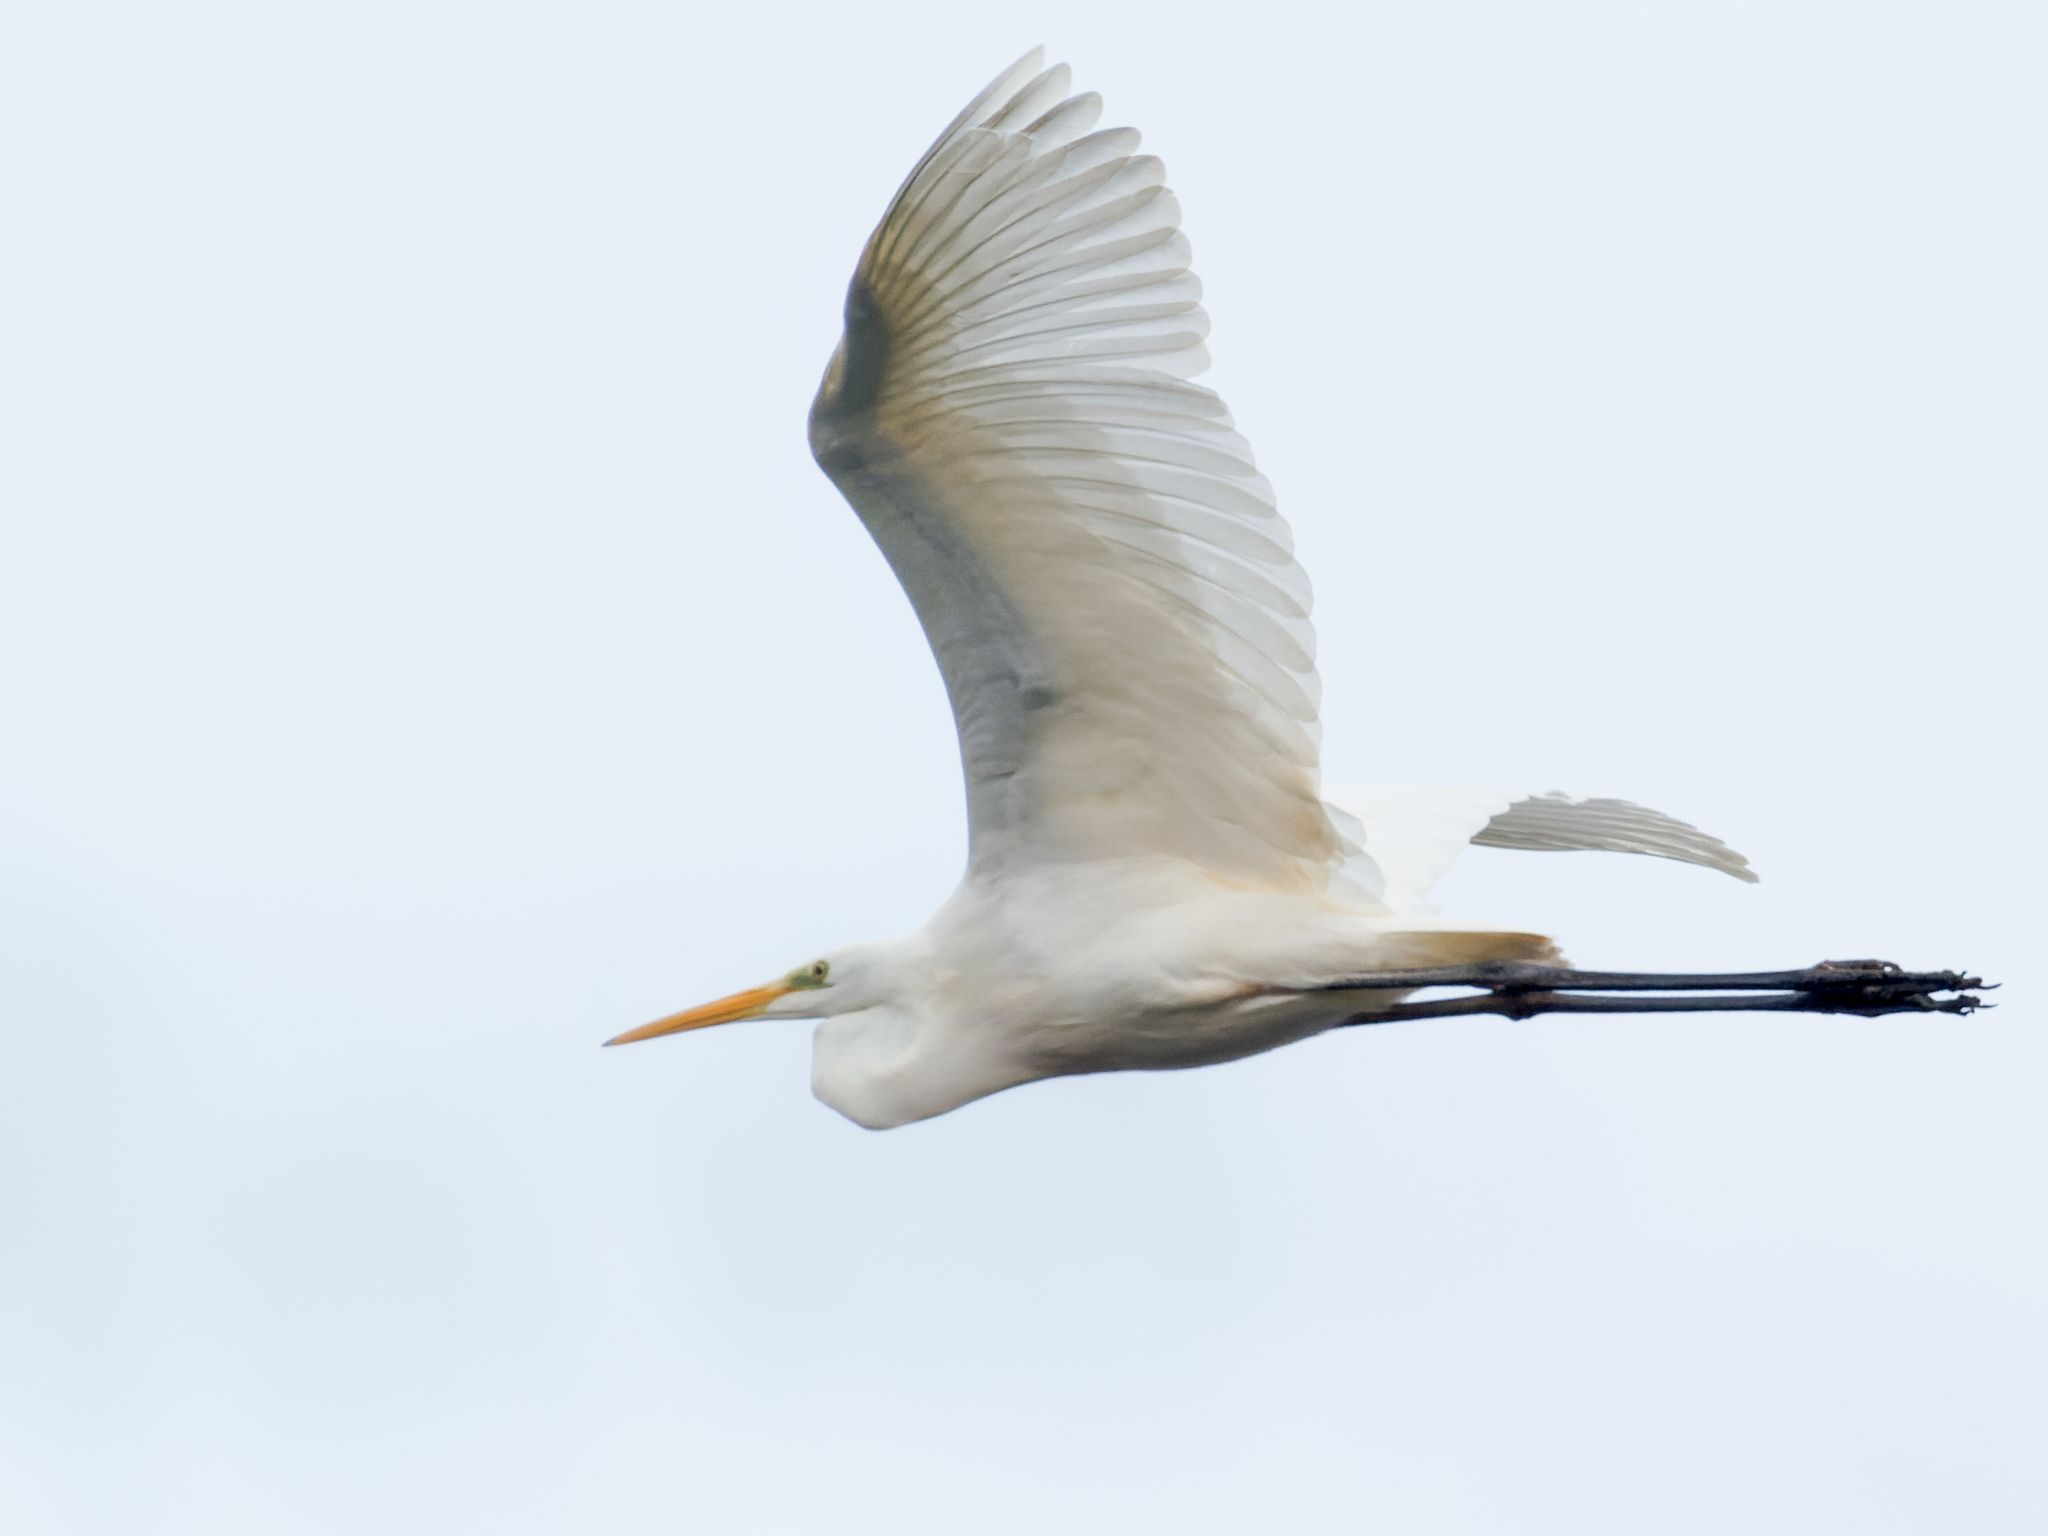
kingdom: Animalia
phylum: Chordata
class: Aves
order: Pelecaniformes
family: Ardeidae
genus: Ardea
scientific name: Ardea alba
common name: Great egret
